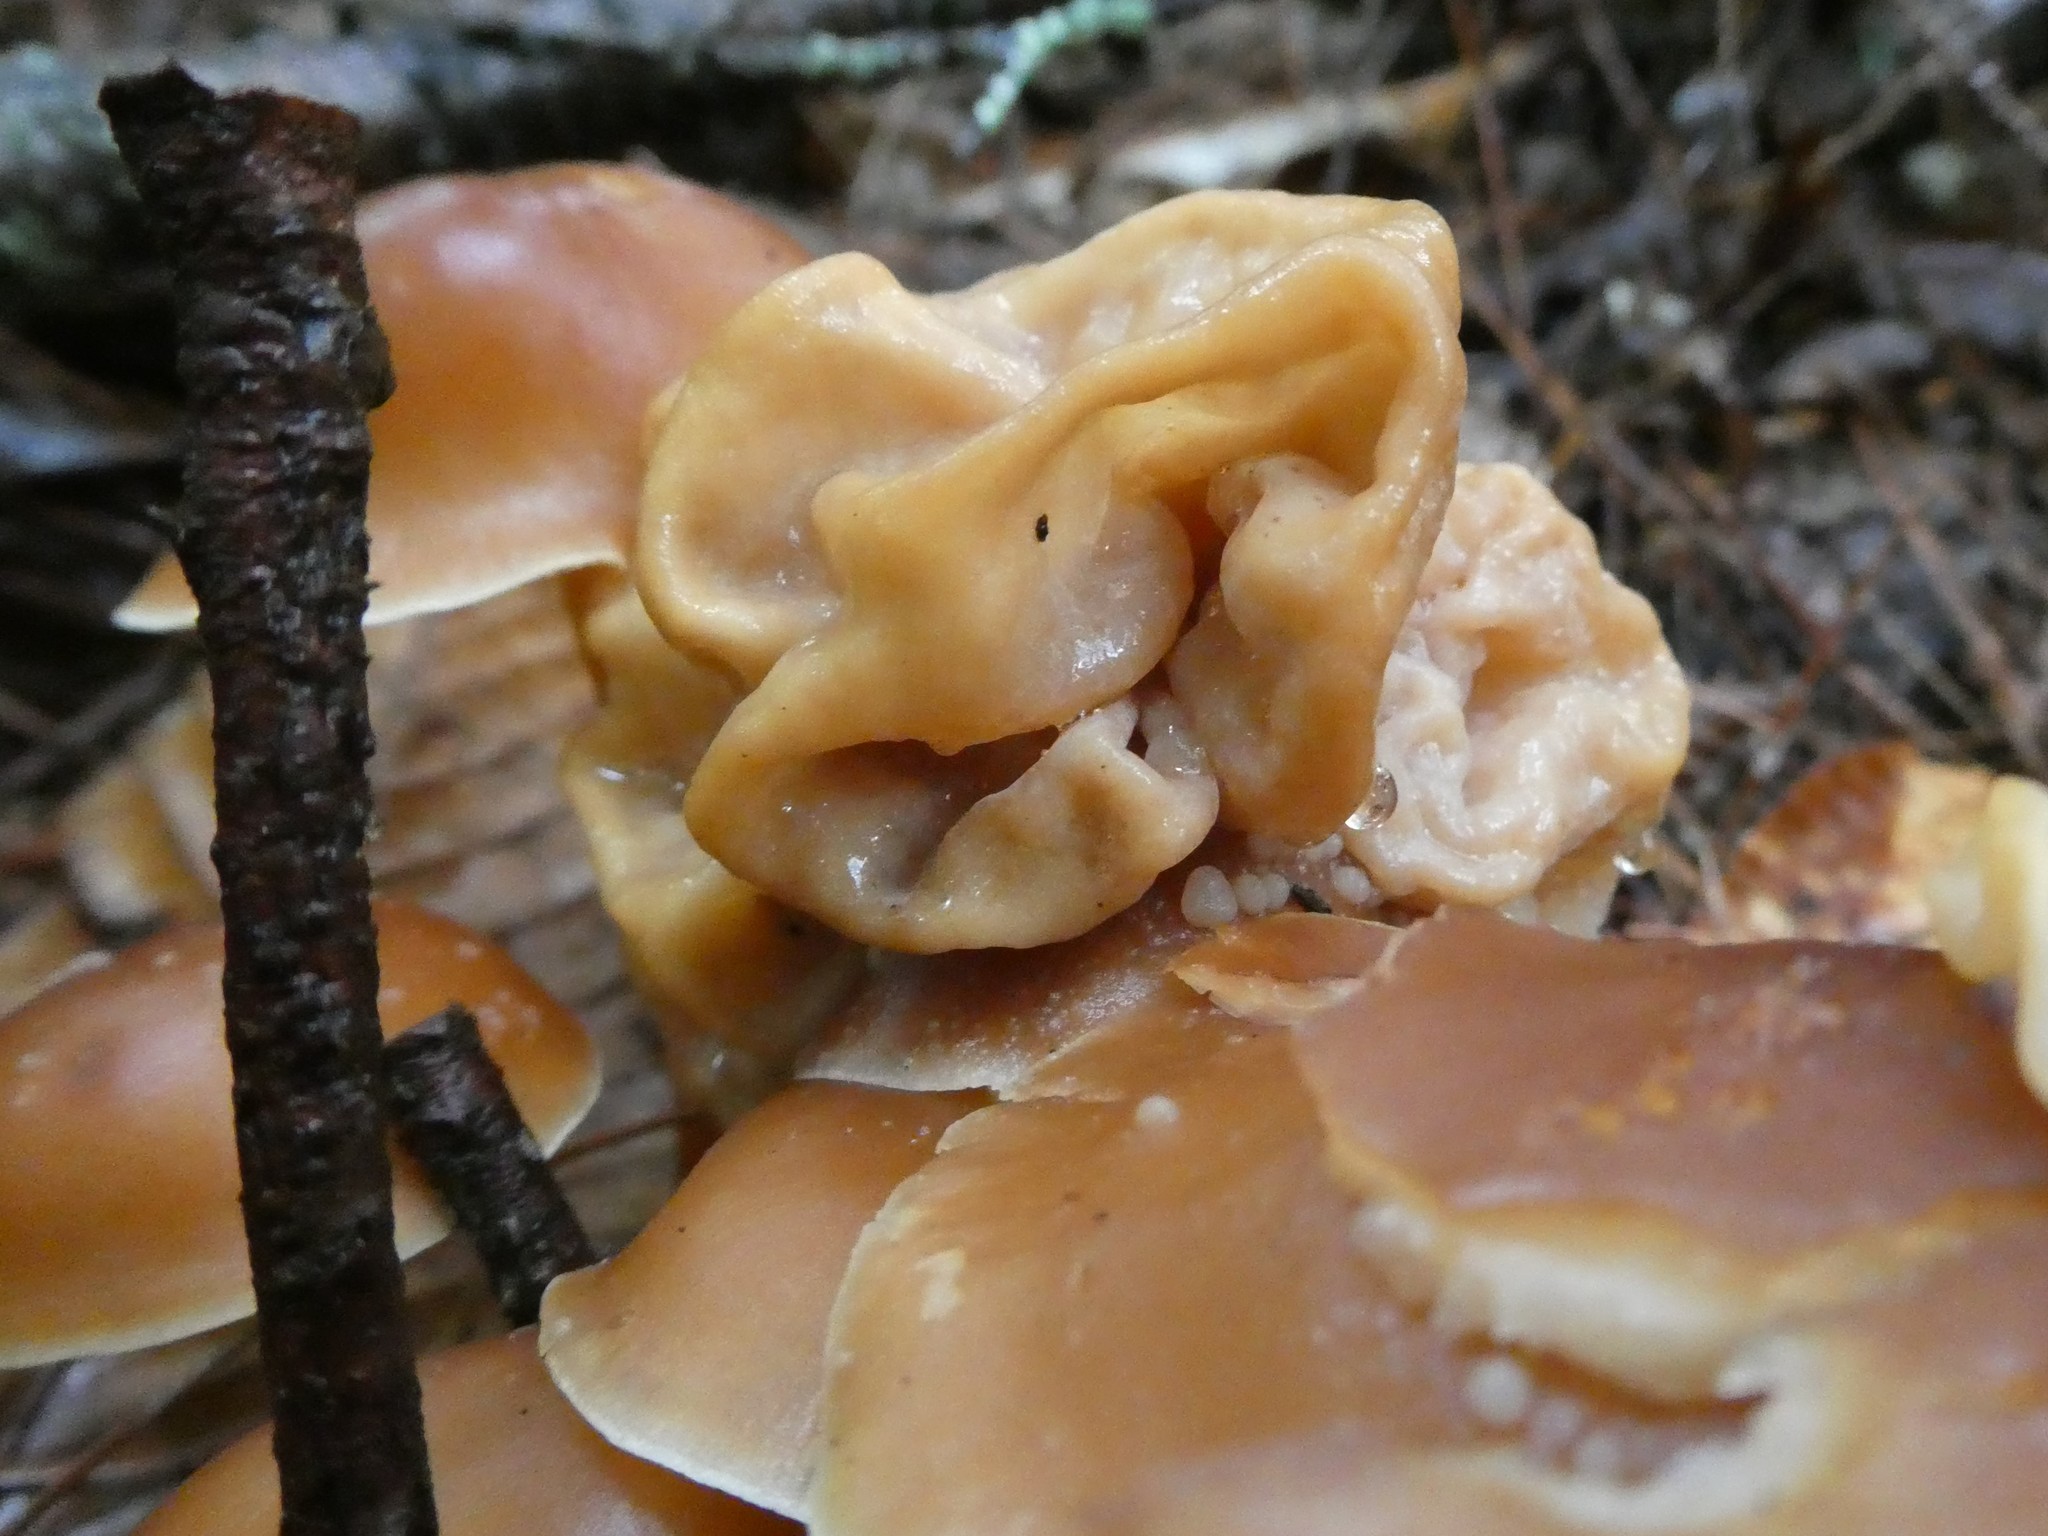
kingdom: Fungi
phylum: Basidiomycota
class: Tremellomycetes
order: Filobasidiales
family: Filobasidiaceae
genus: Syzygospora
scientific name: Syzygospora mycetophila
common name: Collybia clouds
